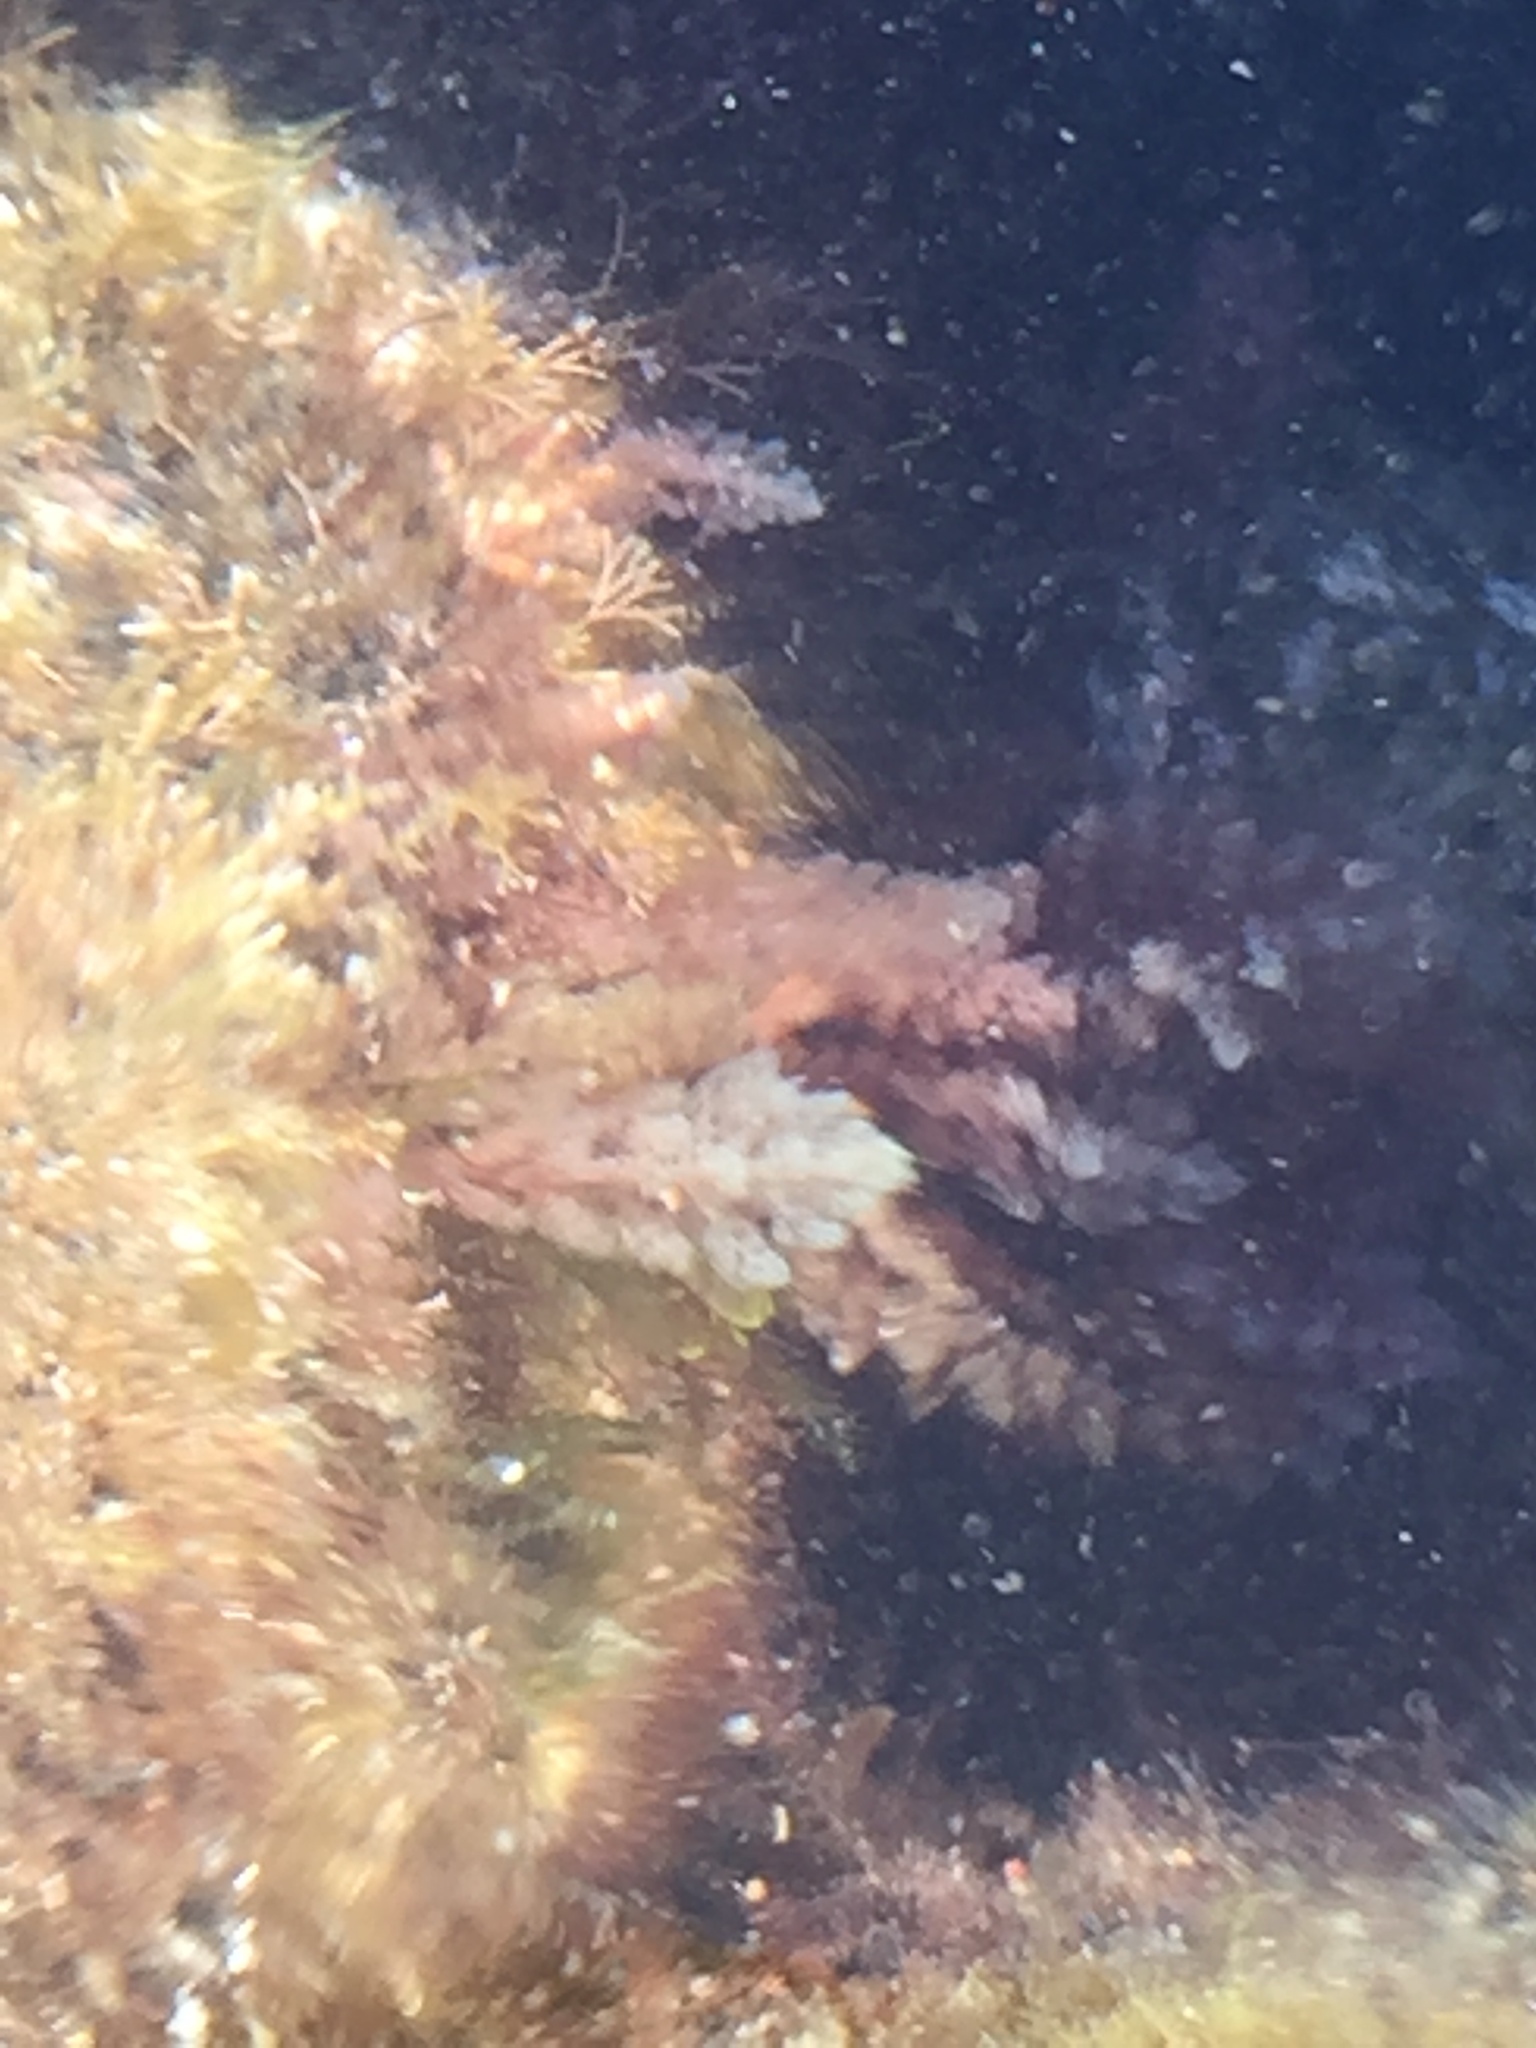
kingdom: Plantae
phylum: Rhodophyta
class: Florideophyceae
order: Bonnemaisoniales
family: Bonnemaisoniaceae
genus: Asparagopsis
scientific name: Asparagopsis taxiformis
